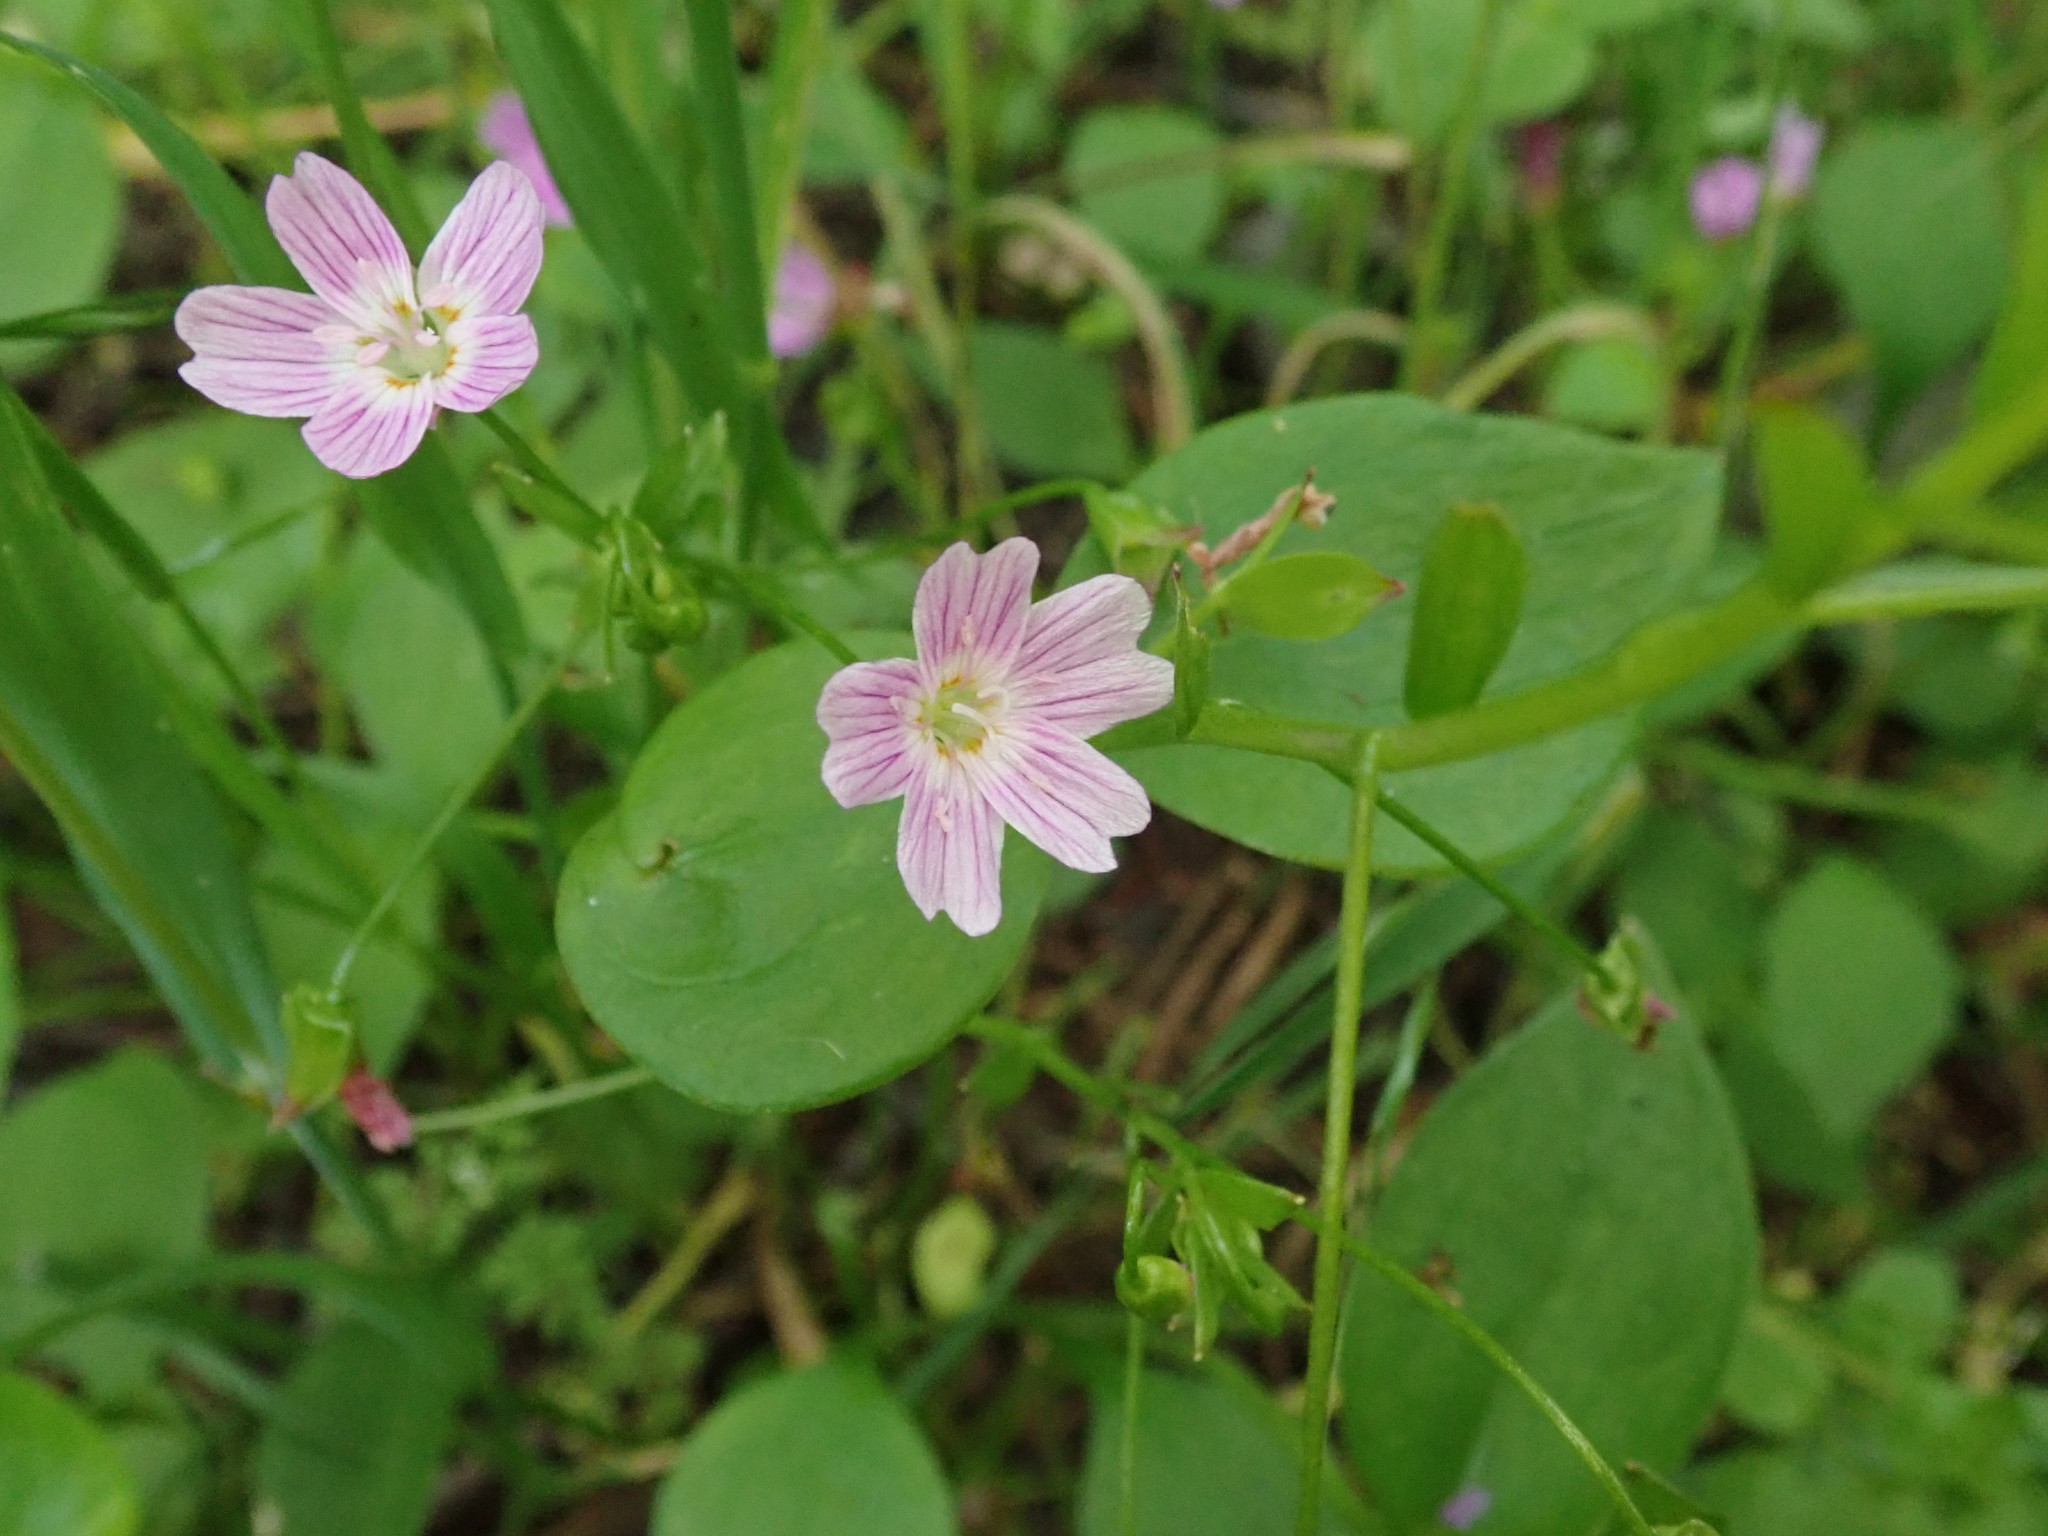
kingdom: Plantae
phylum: Tracheophyta
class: Magnoliopsida
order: Caryophyllales
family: Montiaceae
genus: Claytonia
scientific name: Claytonia sibirica
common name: Pink purslane
